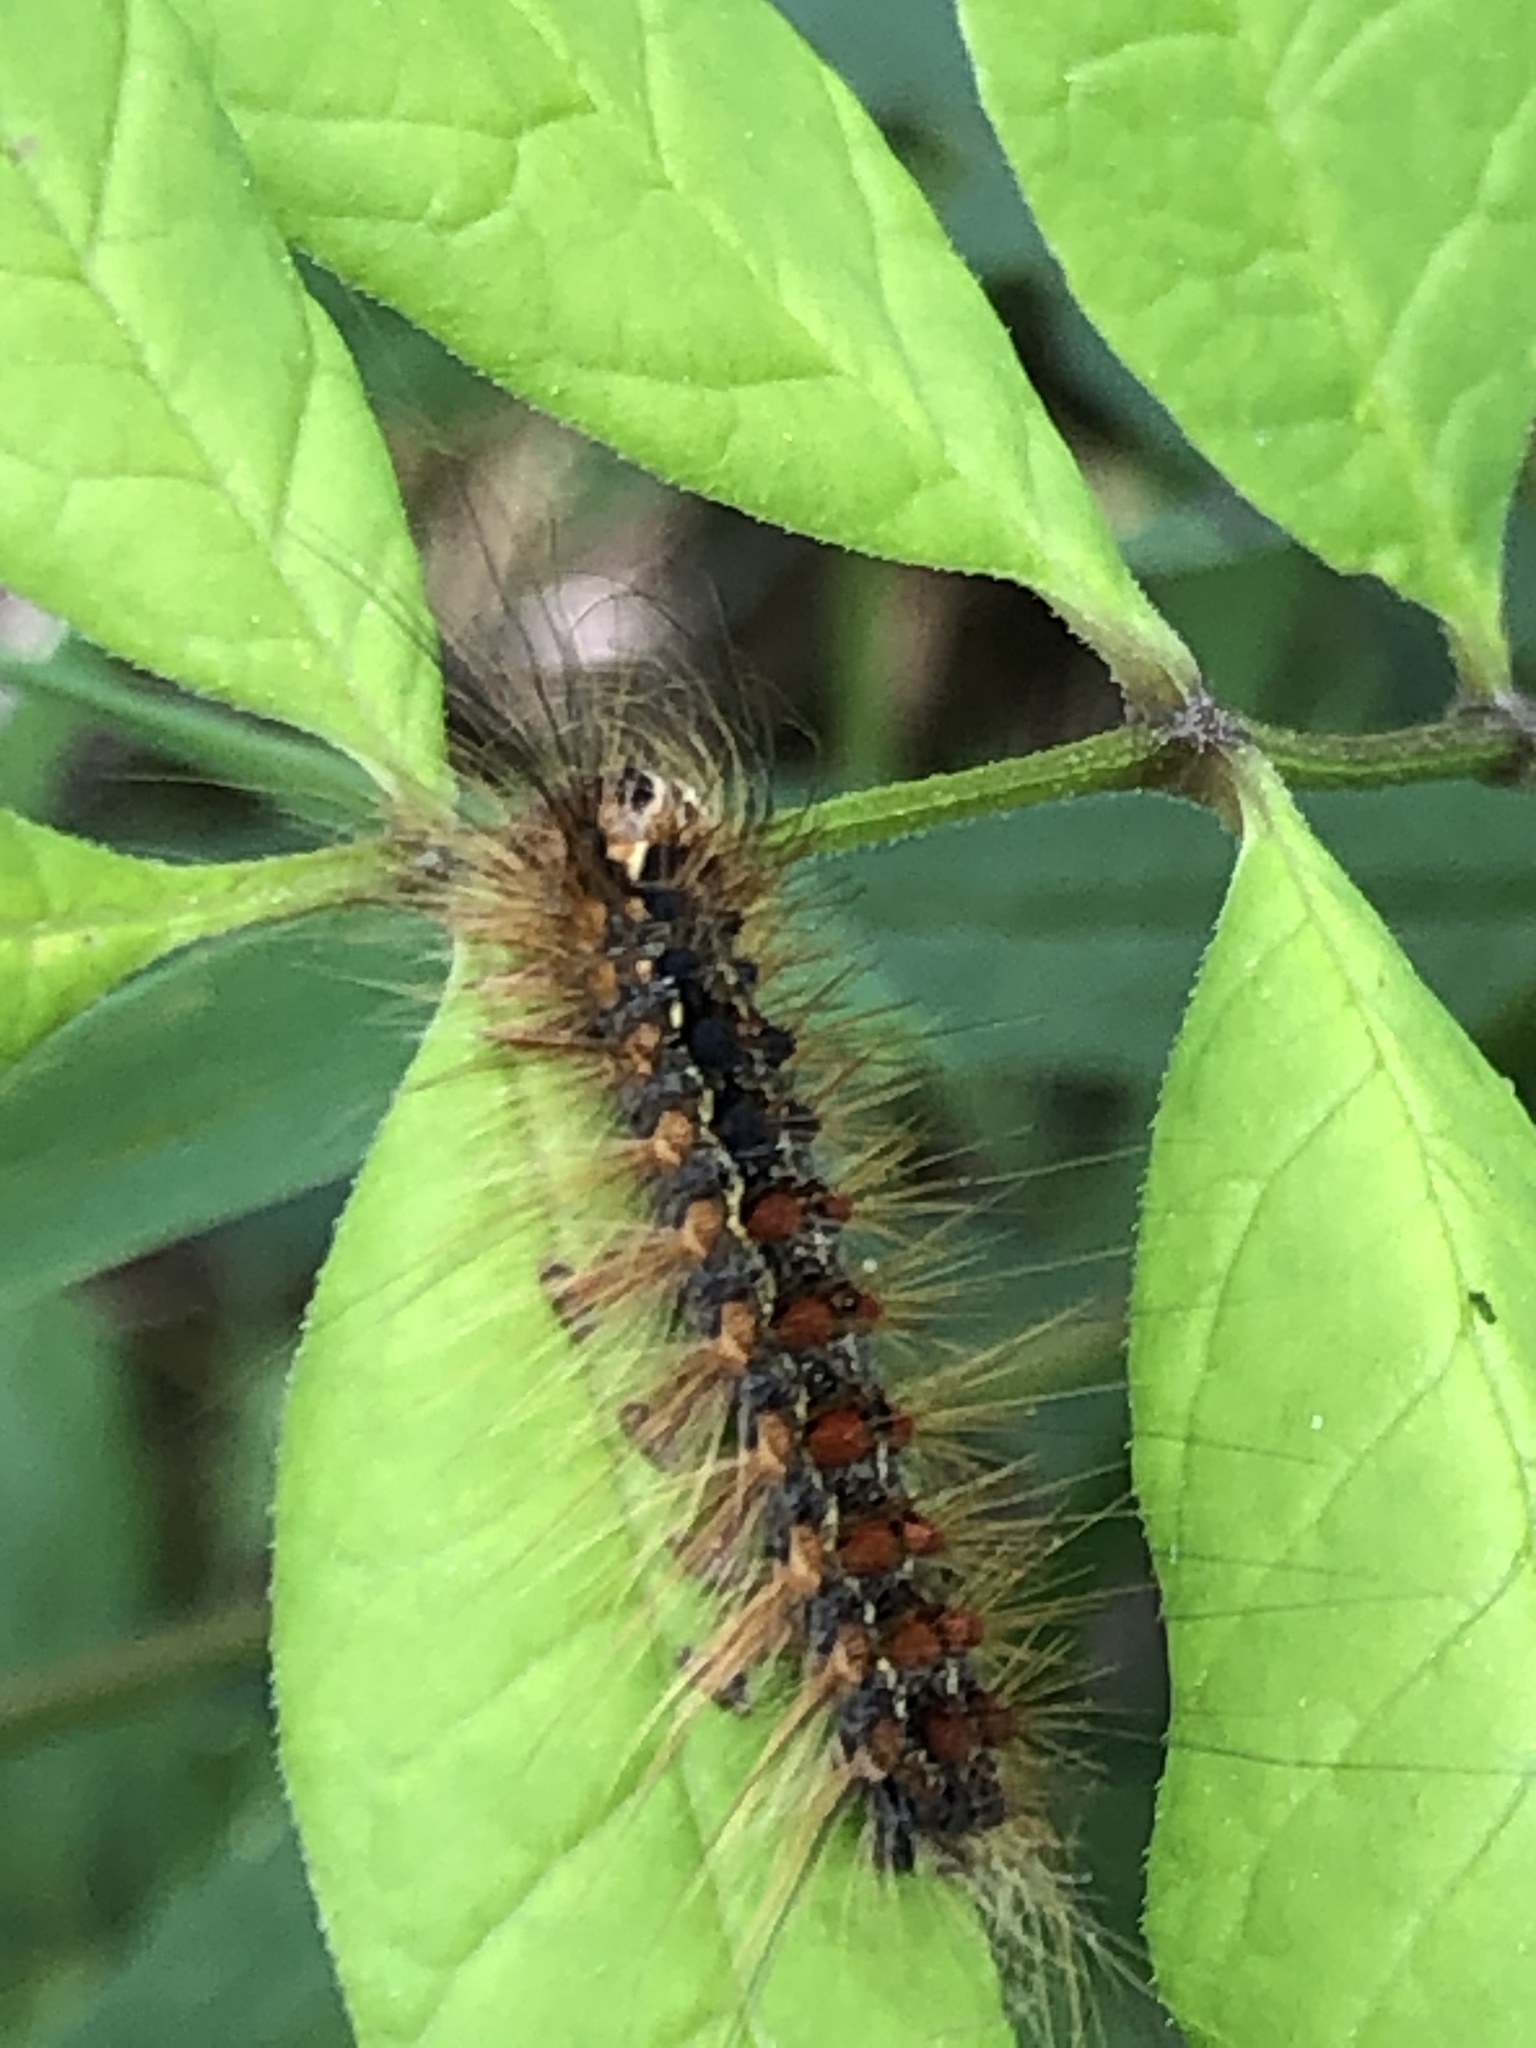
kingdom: Animalia
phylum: Arthropoda
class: Insecta
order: Lepidoptera
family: Erebidae
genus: Lymantria
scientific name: Lymantria dispar
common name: Gypsy moth
